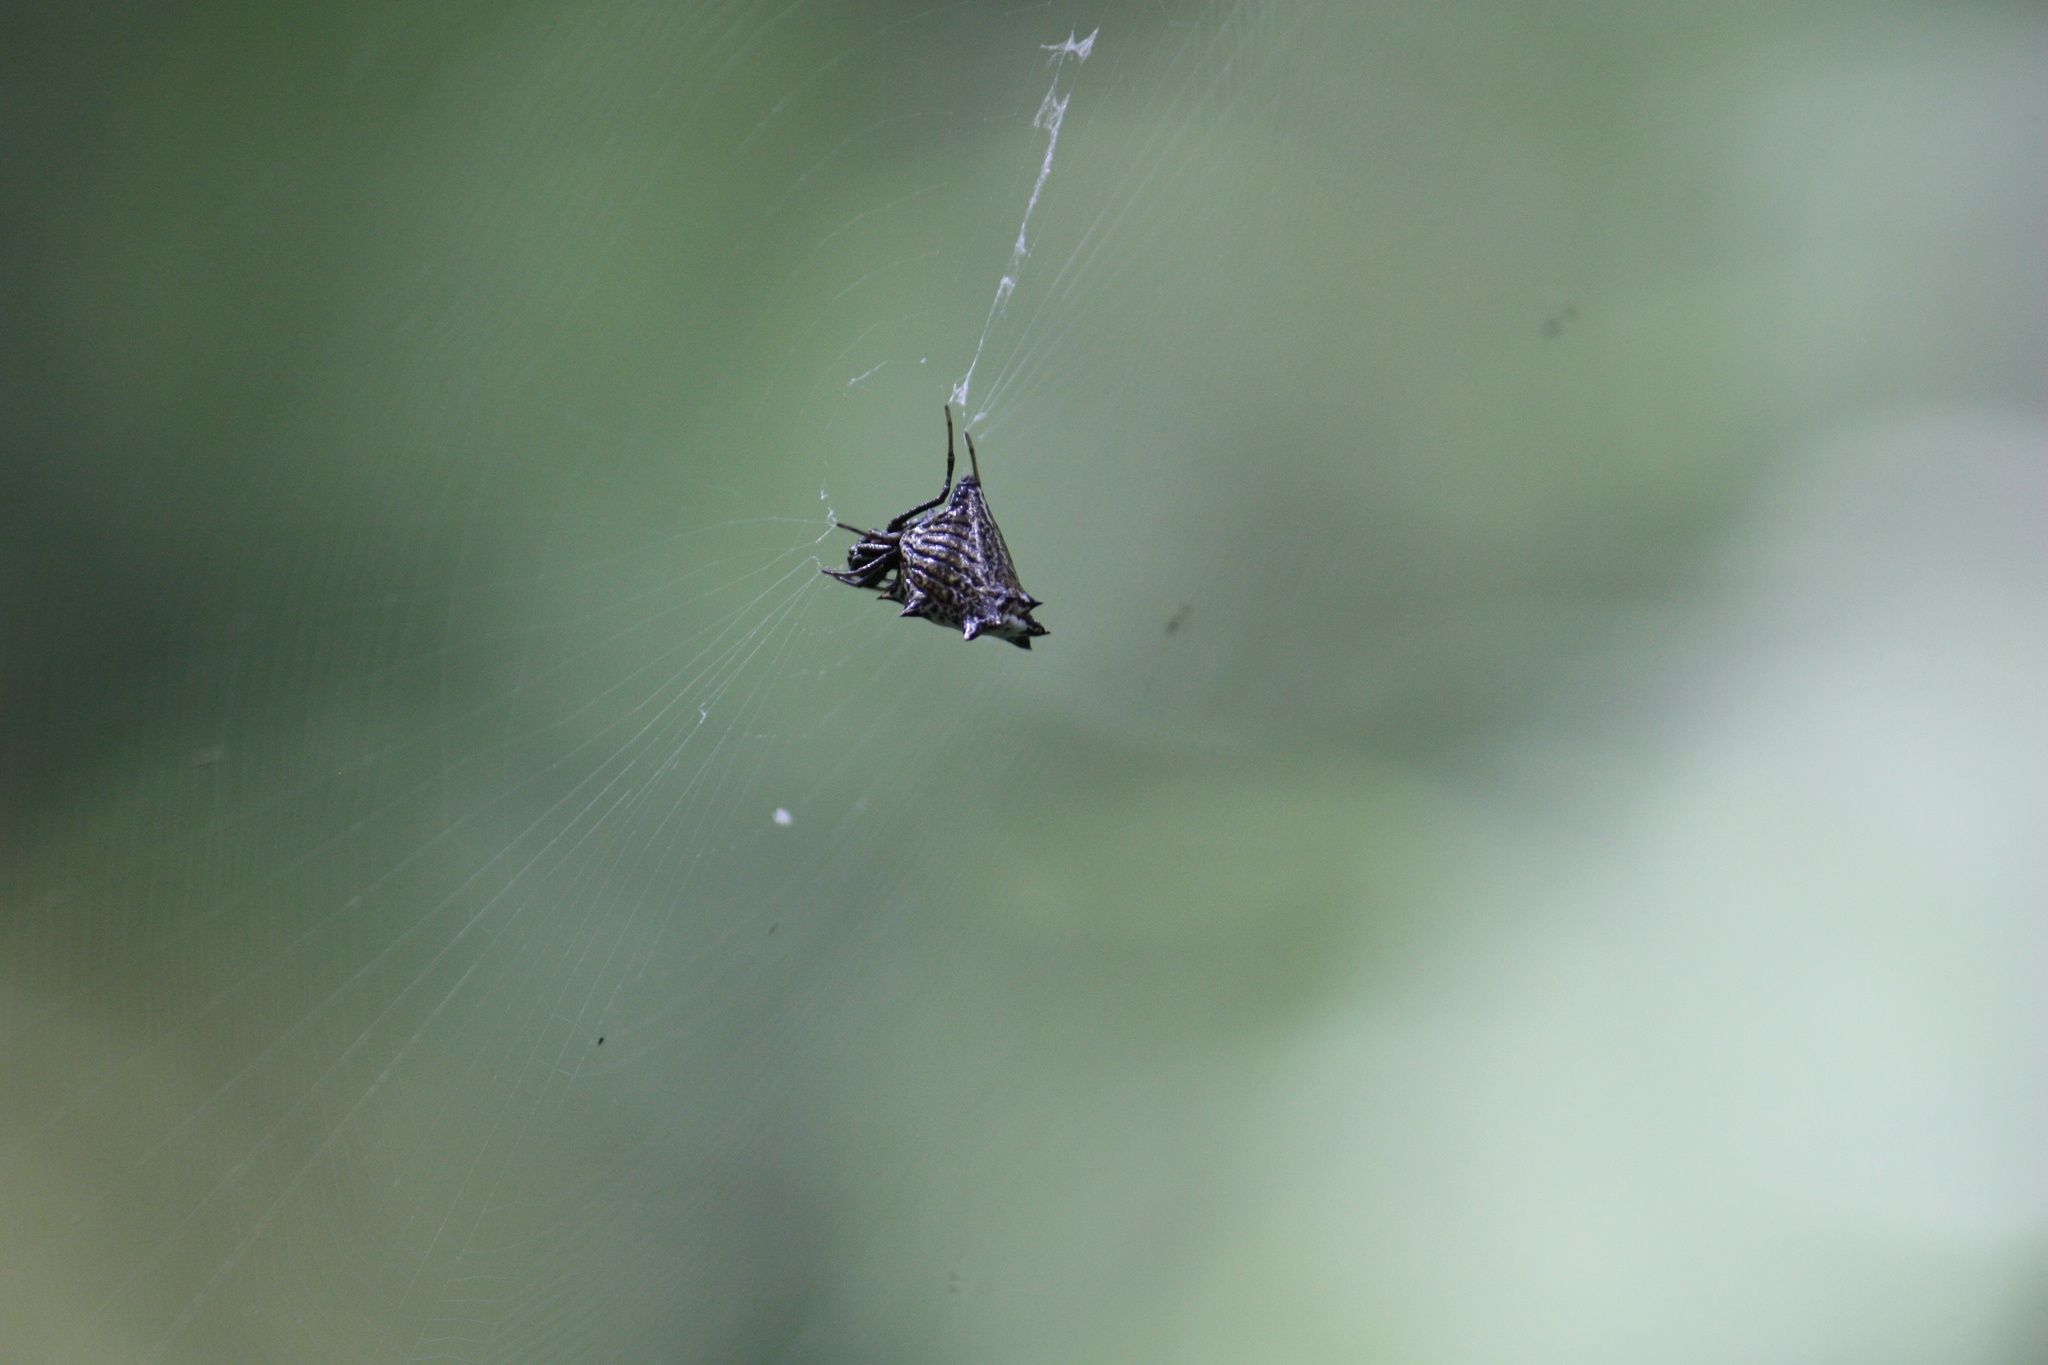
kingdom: Animalia
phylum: Arthropoda
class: Arachnida
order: Araneae
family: Araneidae
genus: Micrathena
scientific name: Micrathena gracilis
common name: Orb weavers
